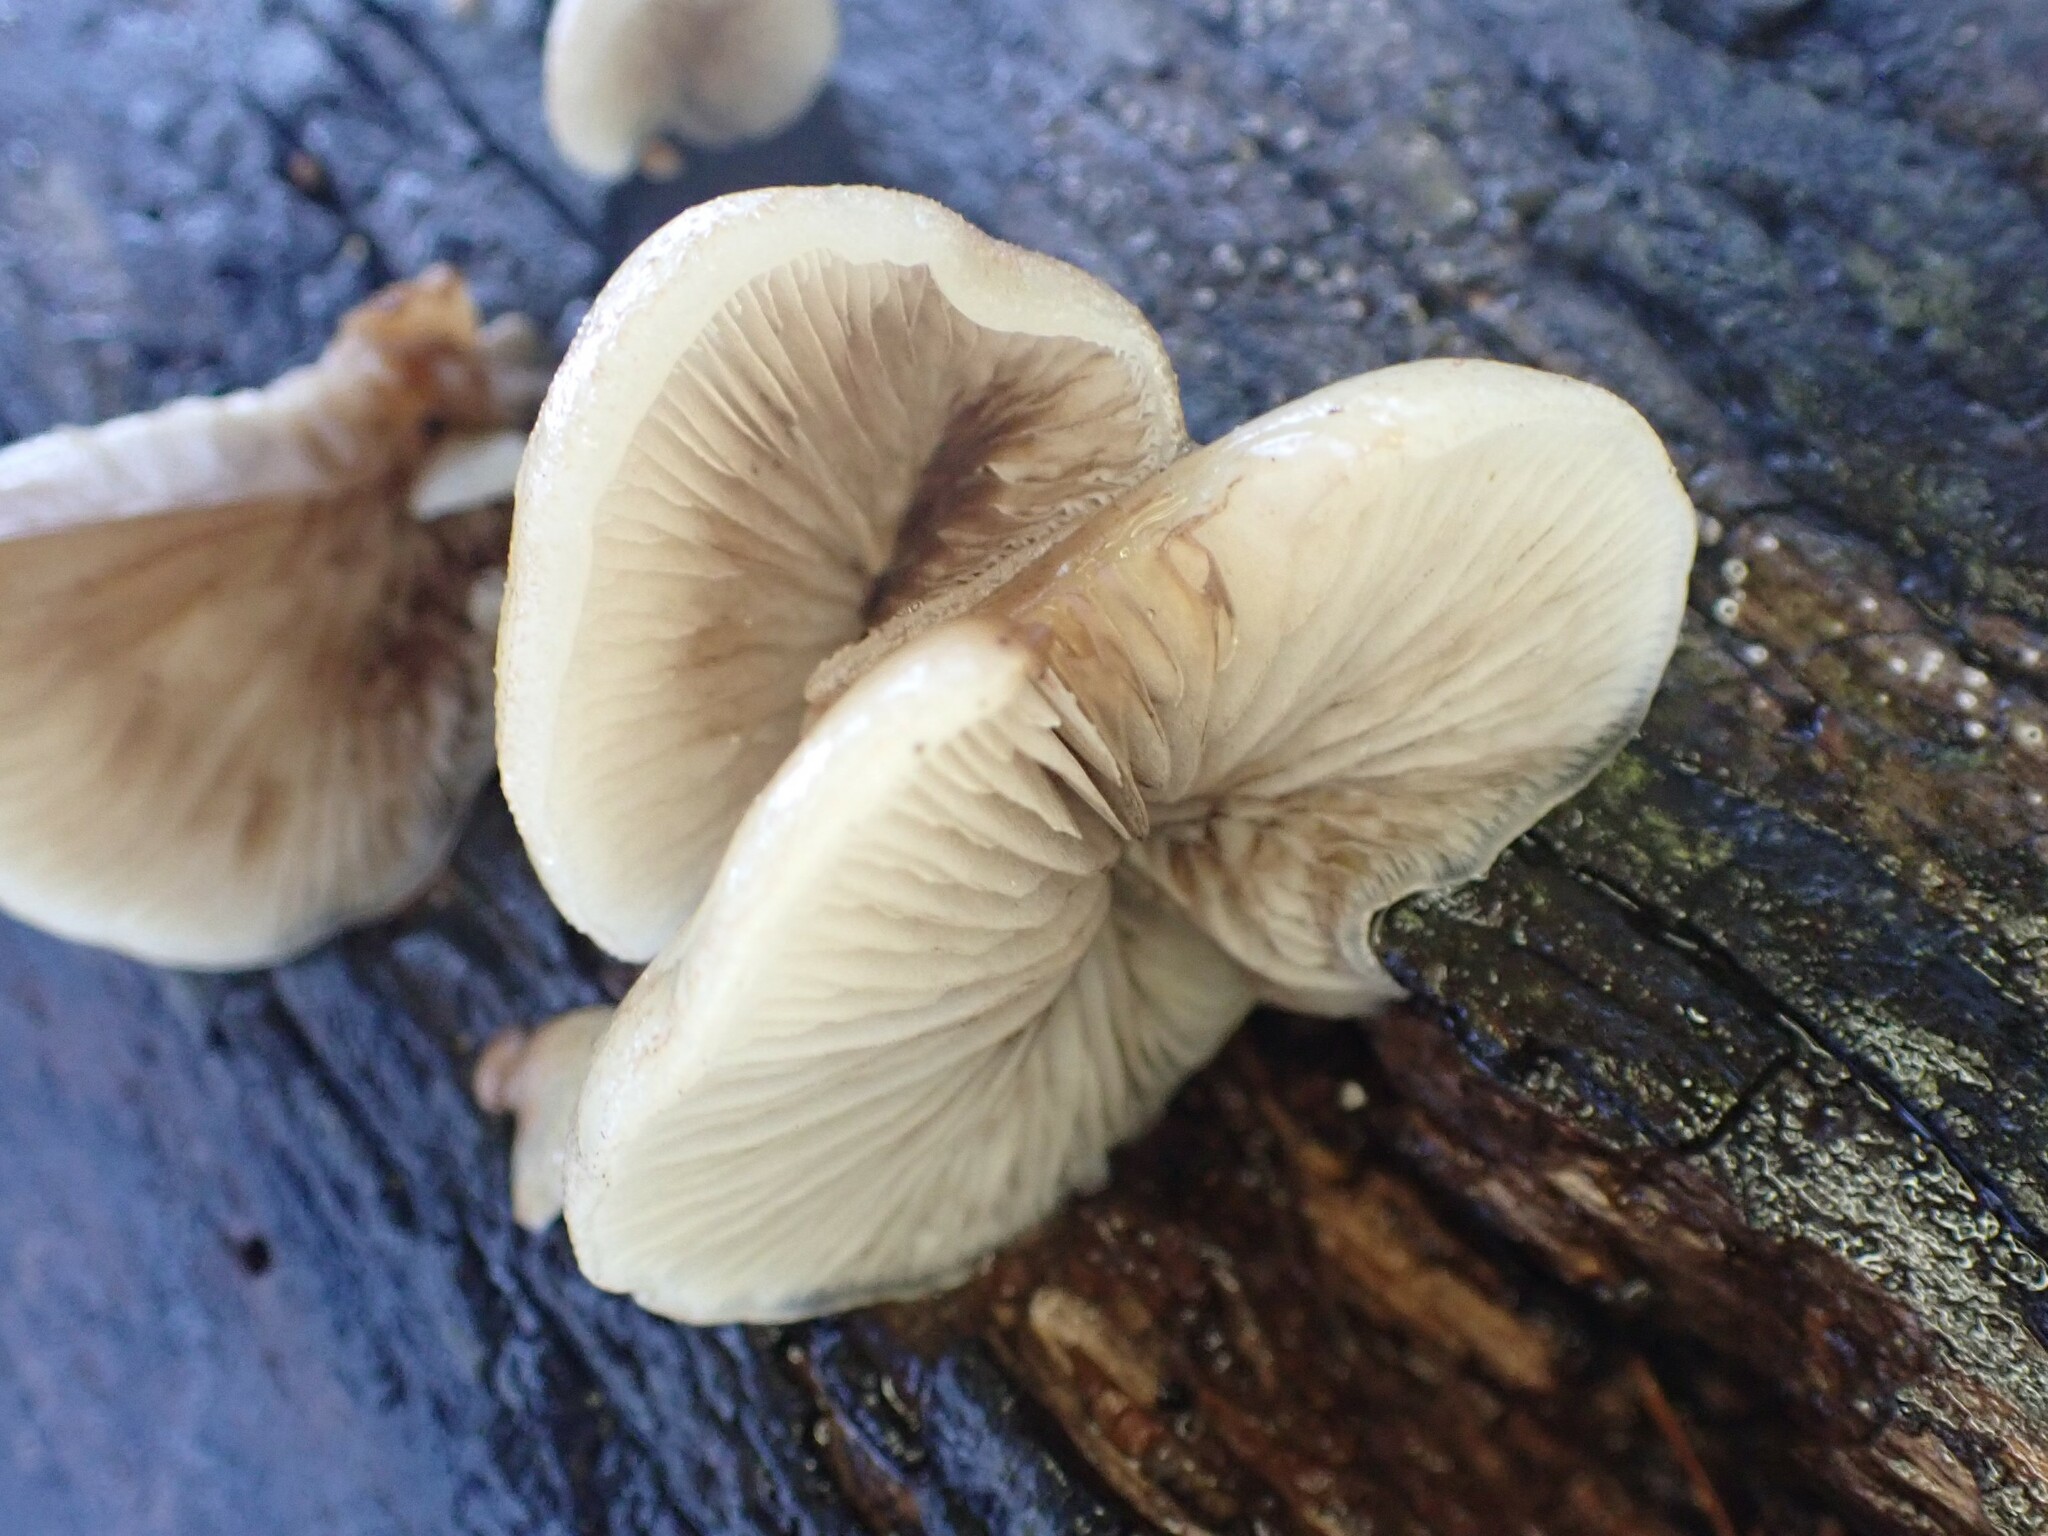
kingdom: Fungi
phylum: Basidiomycota
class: Agaricomycetes
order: Agaricales
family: Crepidotaceae
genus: Crepidotus
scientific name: Crepidotus mollis
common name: Peeling oysterling
